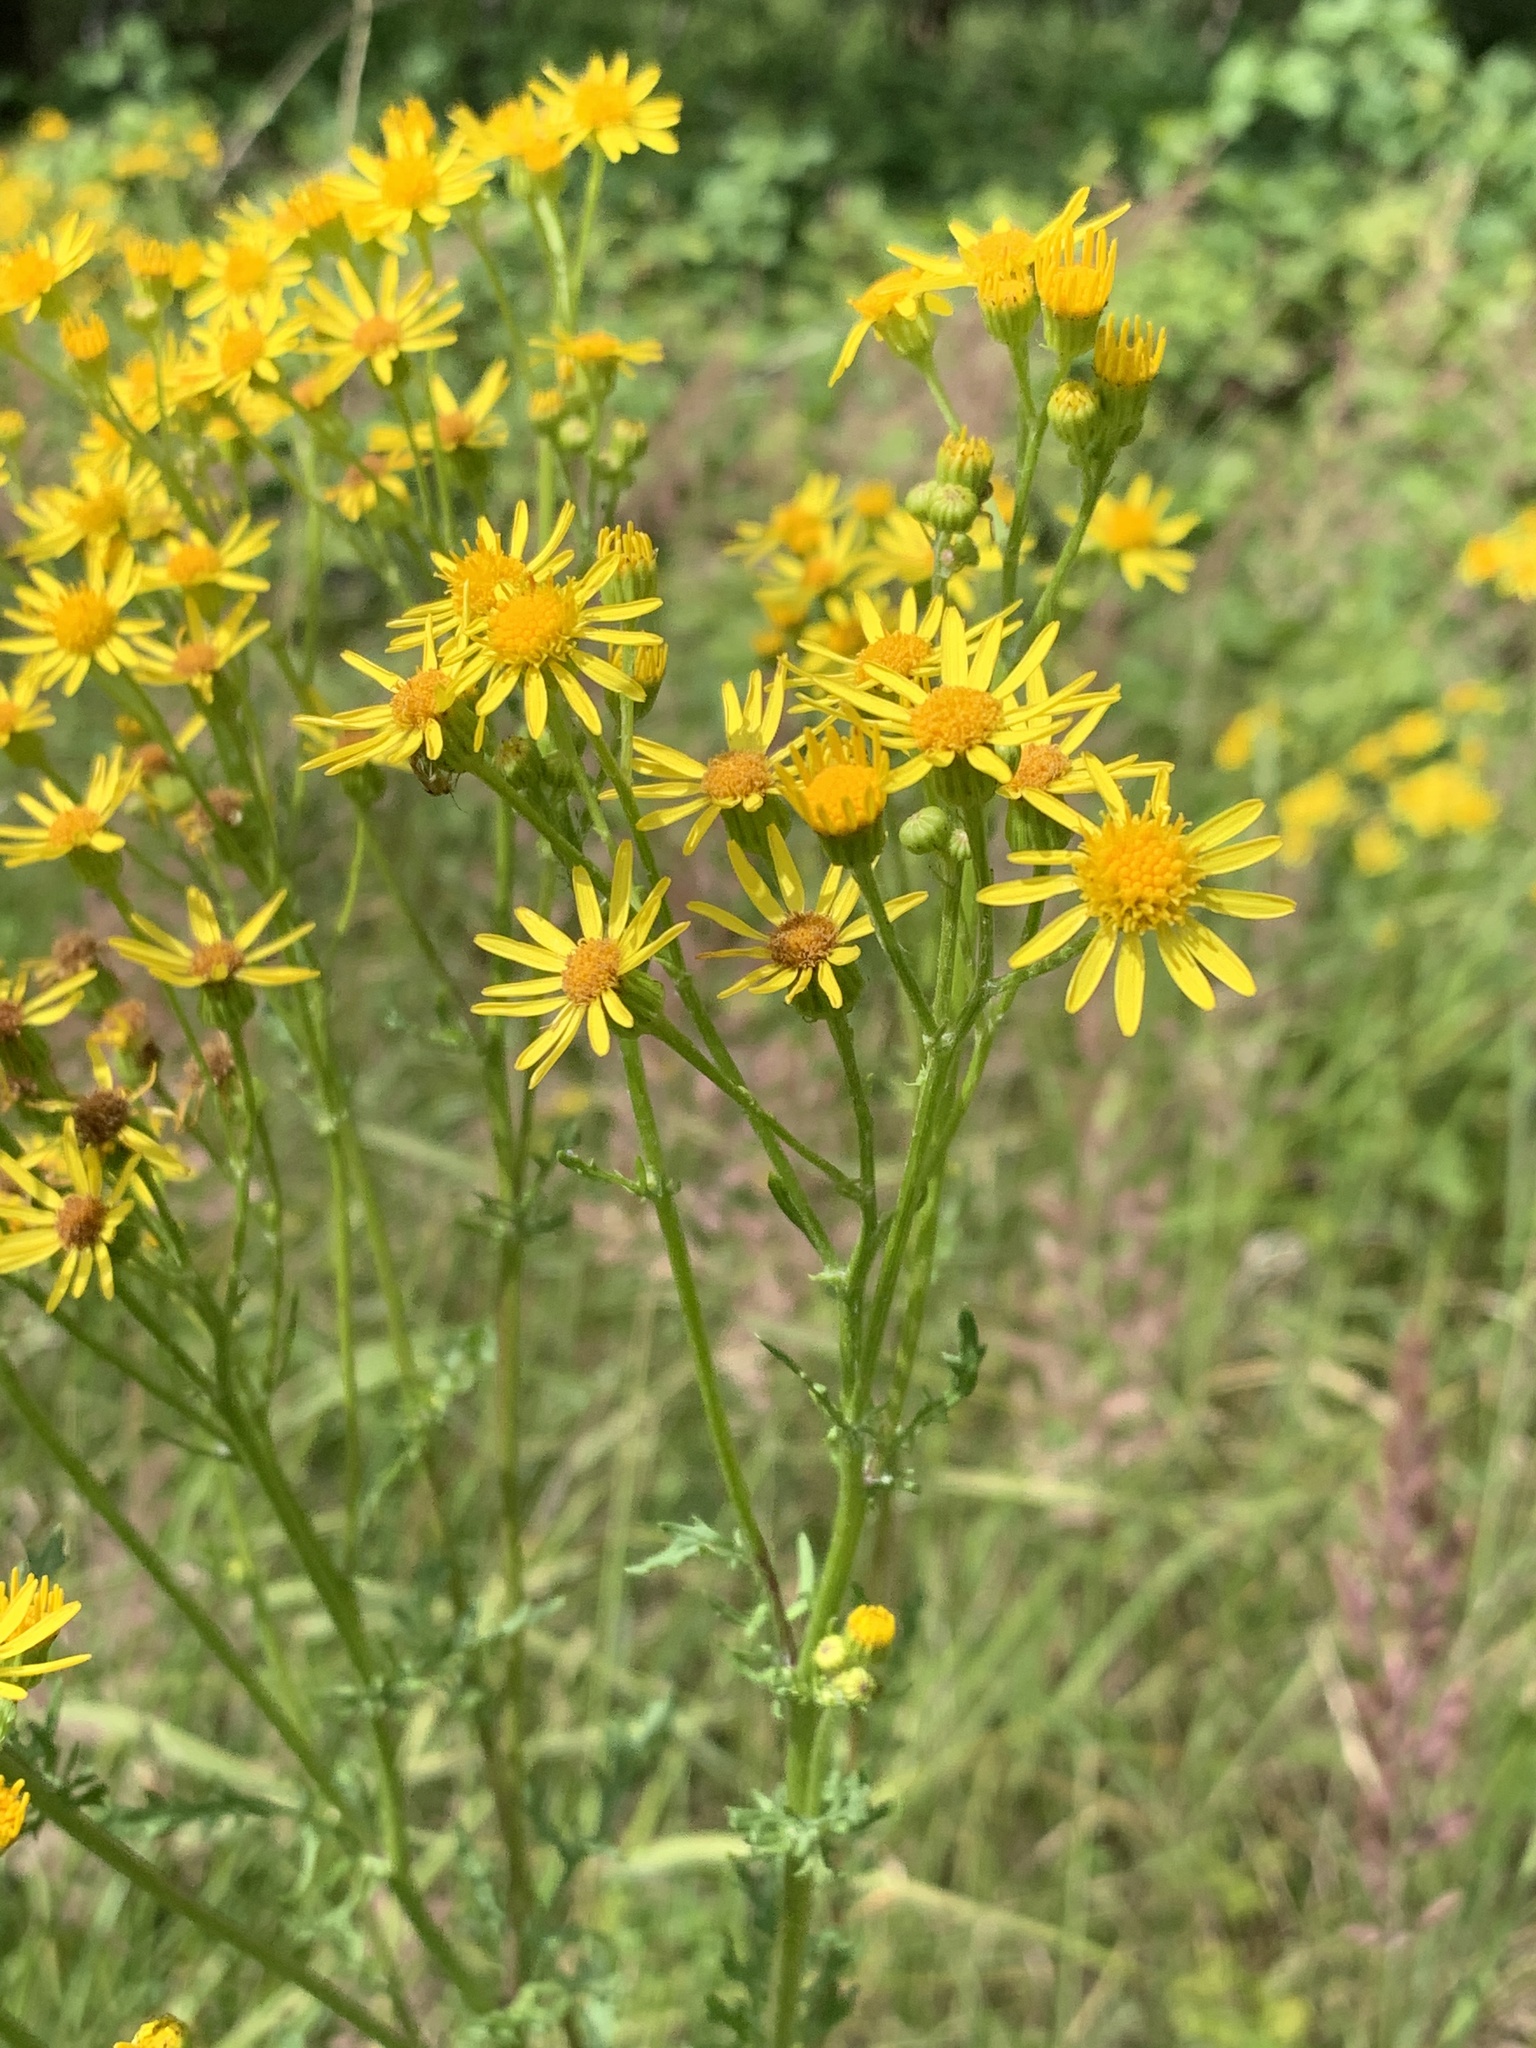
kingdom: Plantae
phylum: Tracheophyta
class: Magnoliopsida
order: Asterales
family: Asteraceae
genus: Jacobaea
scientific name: Jacobaea vulgaris
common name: Stinking willie
